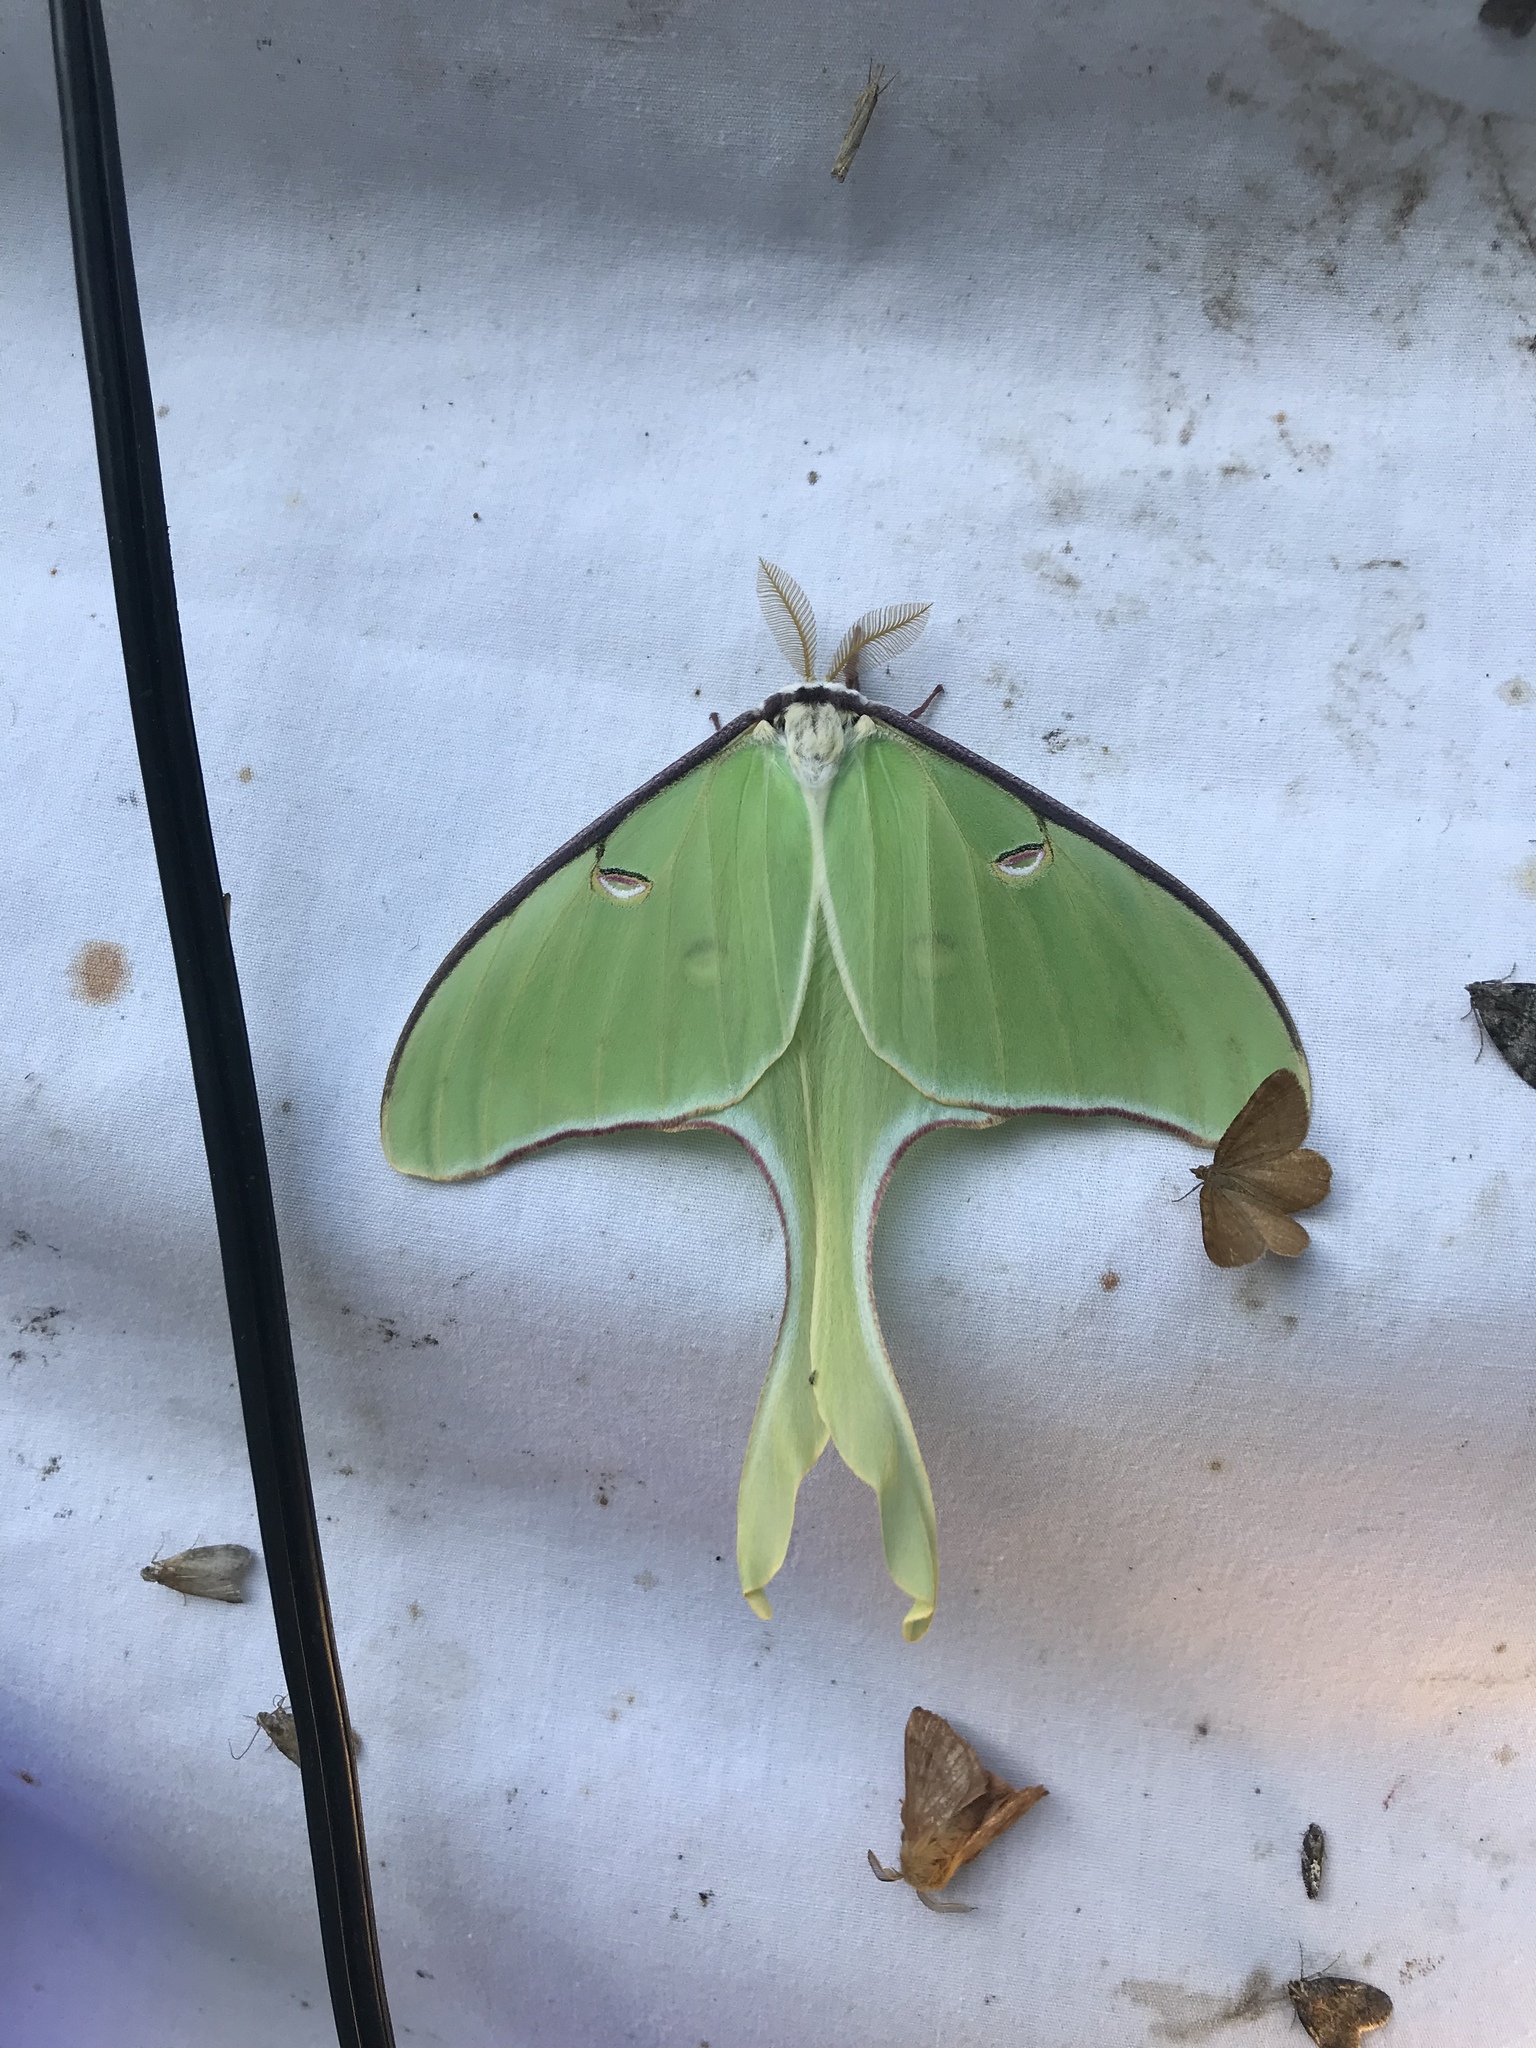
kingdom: Animalia
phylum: Arthropoda
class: Insecta
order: Lepidoptera
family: Saturniidae
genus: Actias
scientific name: Actias luna
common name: Luna moth
